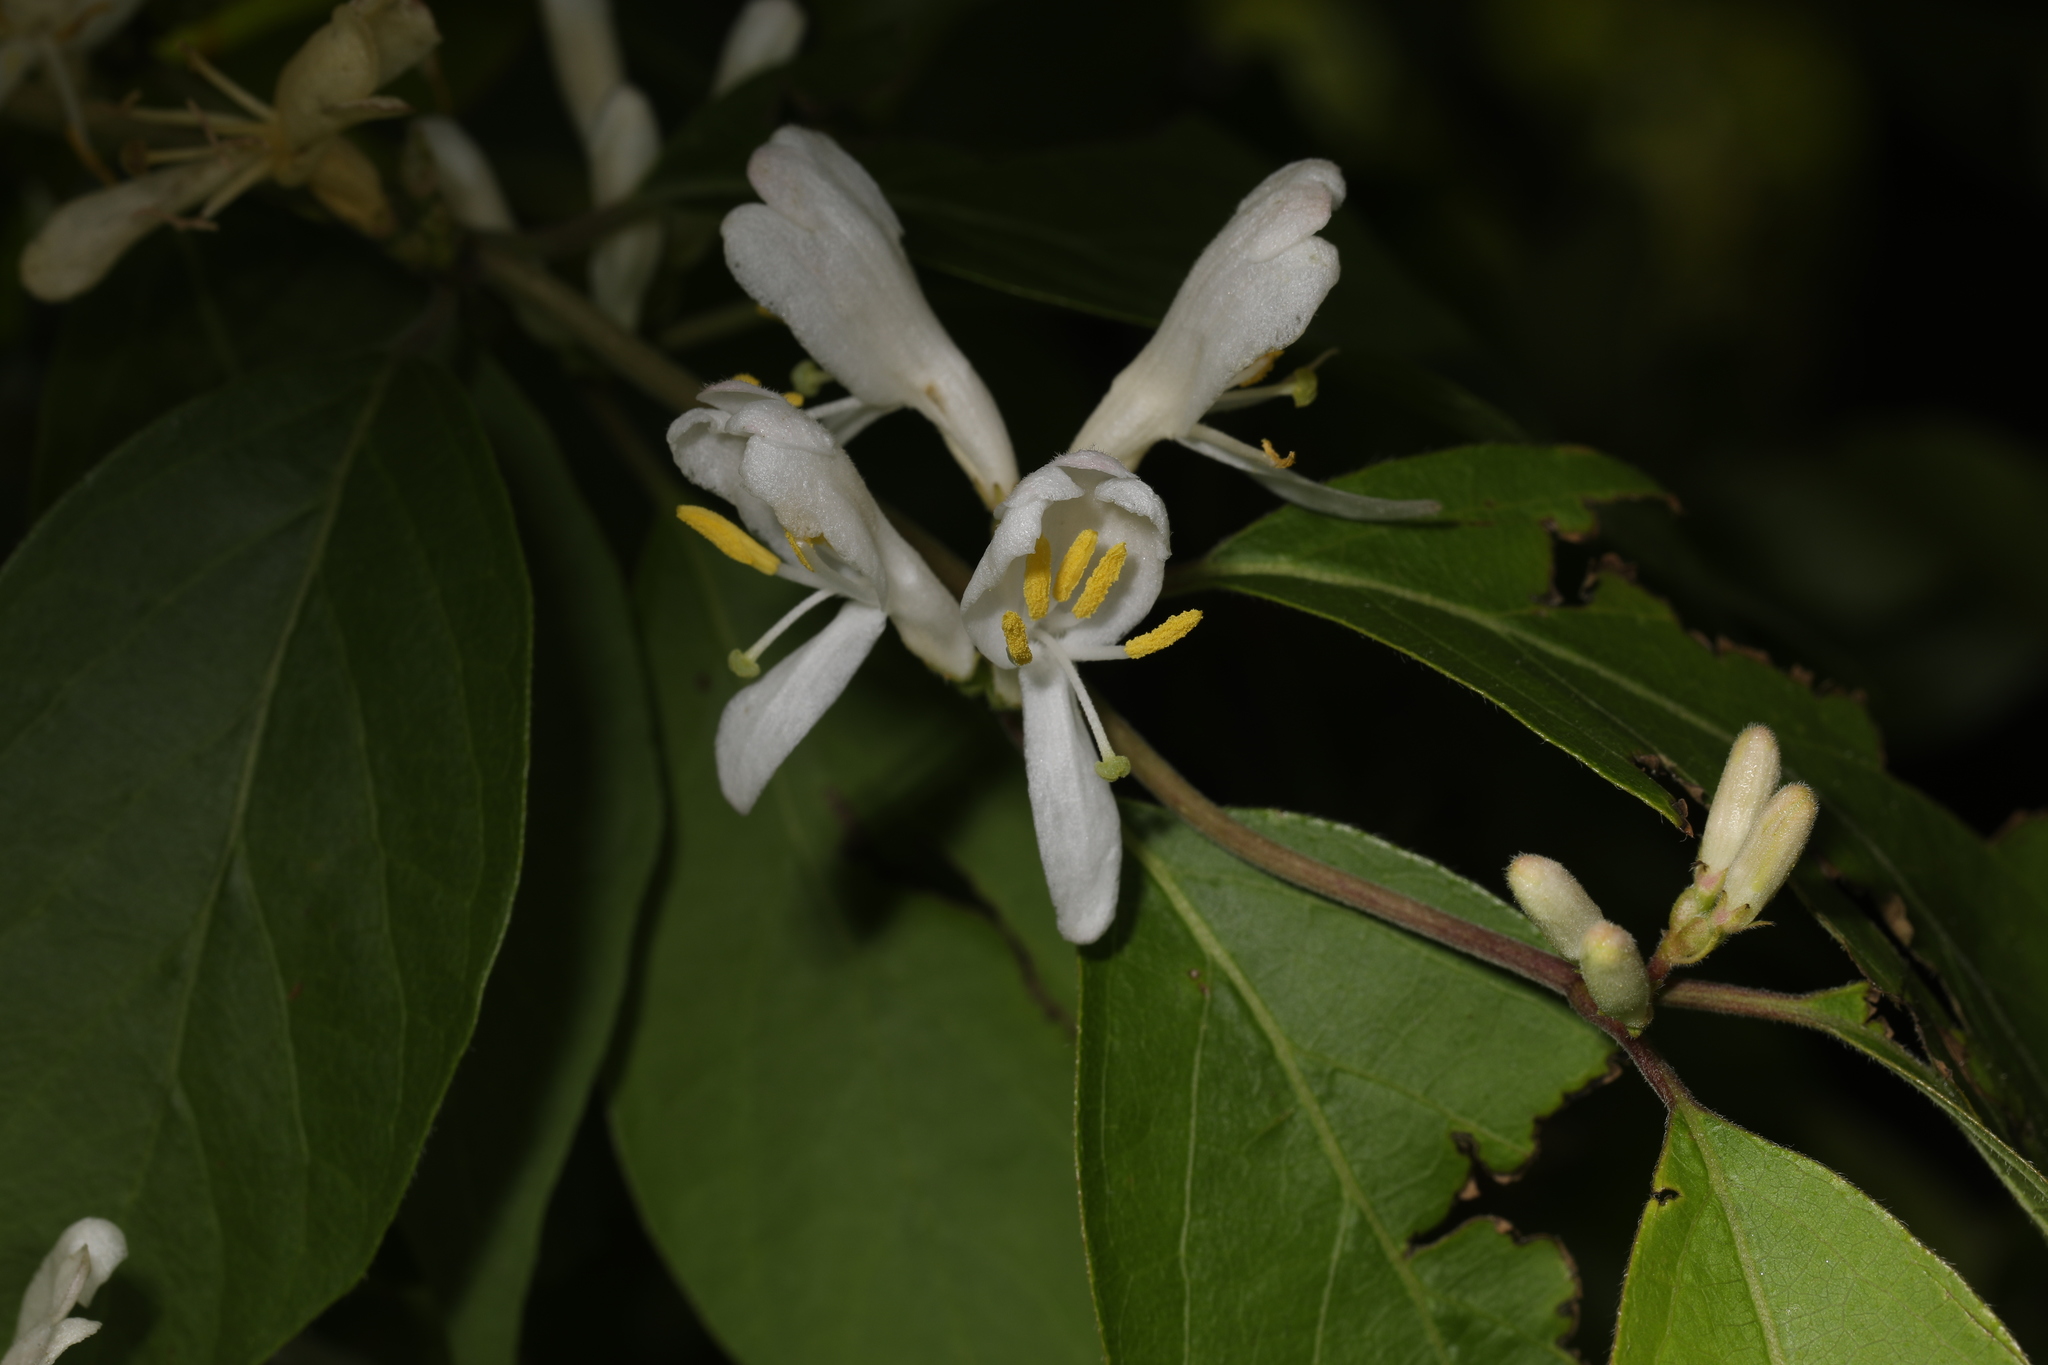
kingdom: Plantae
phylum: Tracheophyta
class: Magnoliopsida
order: Dipsacales
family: Caprifoliaceae
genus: Lonicera
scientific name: Lonicera maackii
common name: Amur honeysuckle
